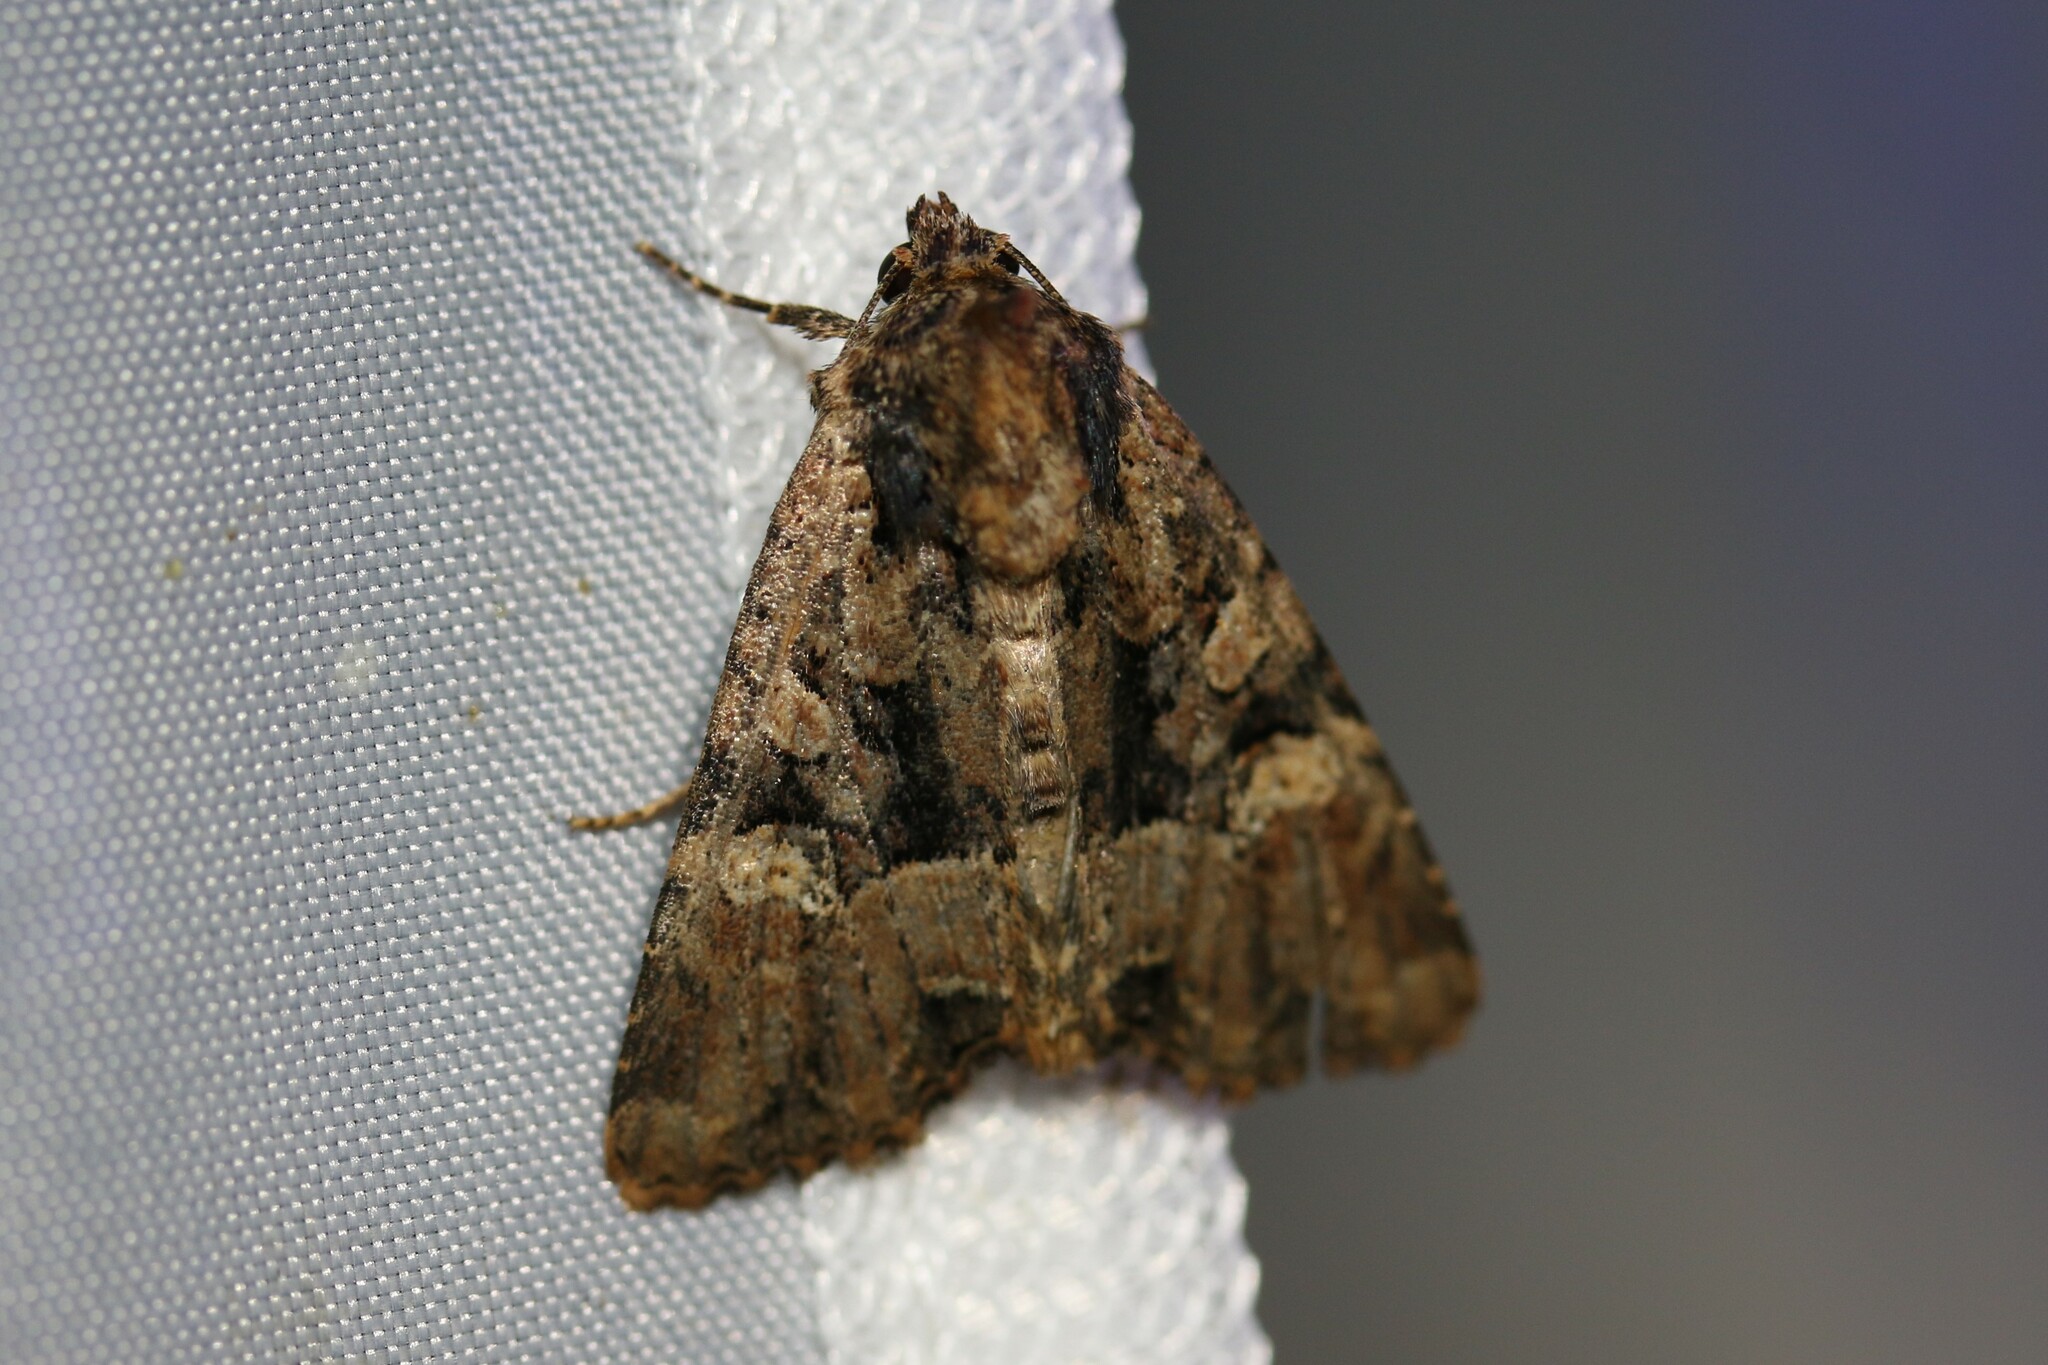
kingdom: Animalia
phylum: Arthropoda
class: Insecta
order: Lepidoptera
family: Noctuidae
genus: Mesapamea
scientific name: Mesapamea
